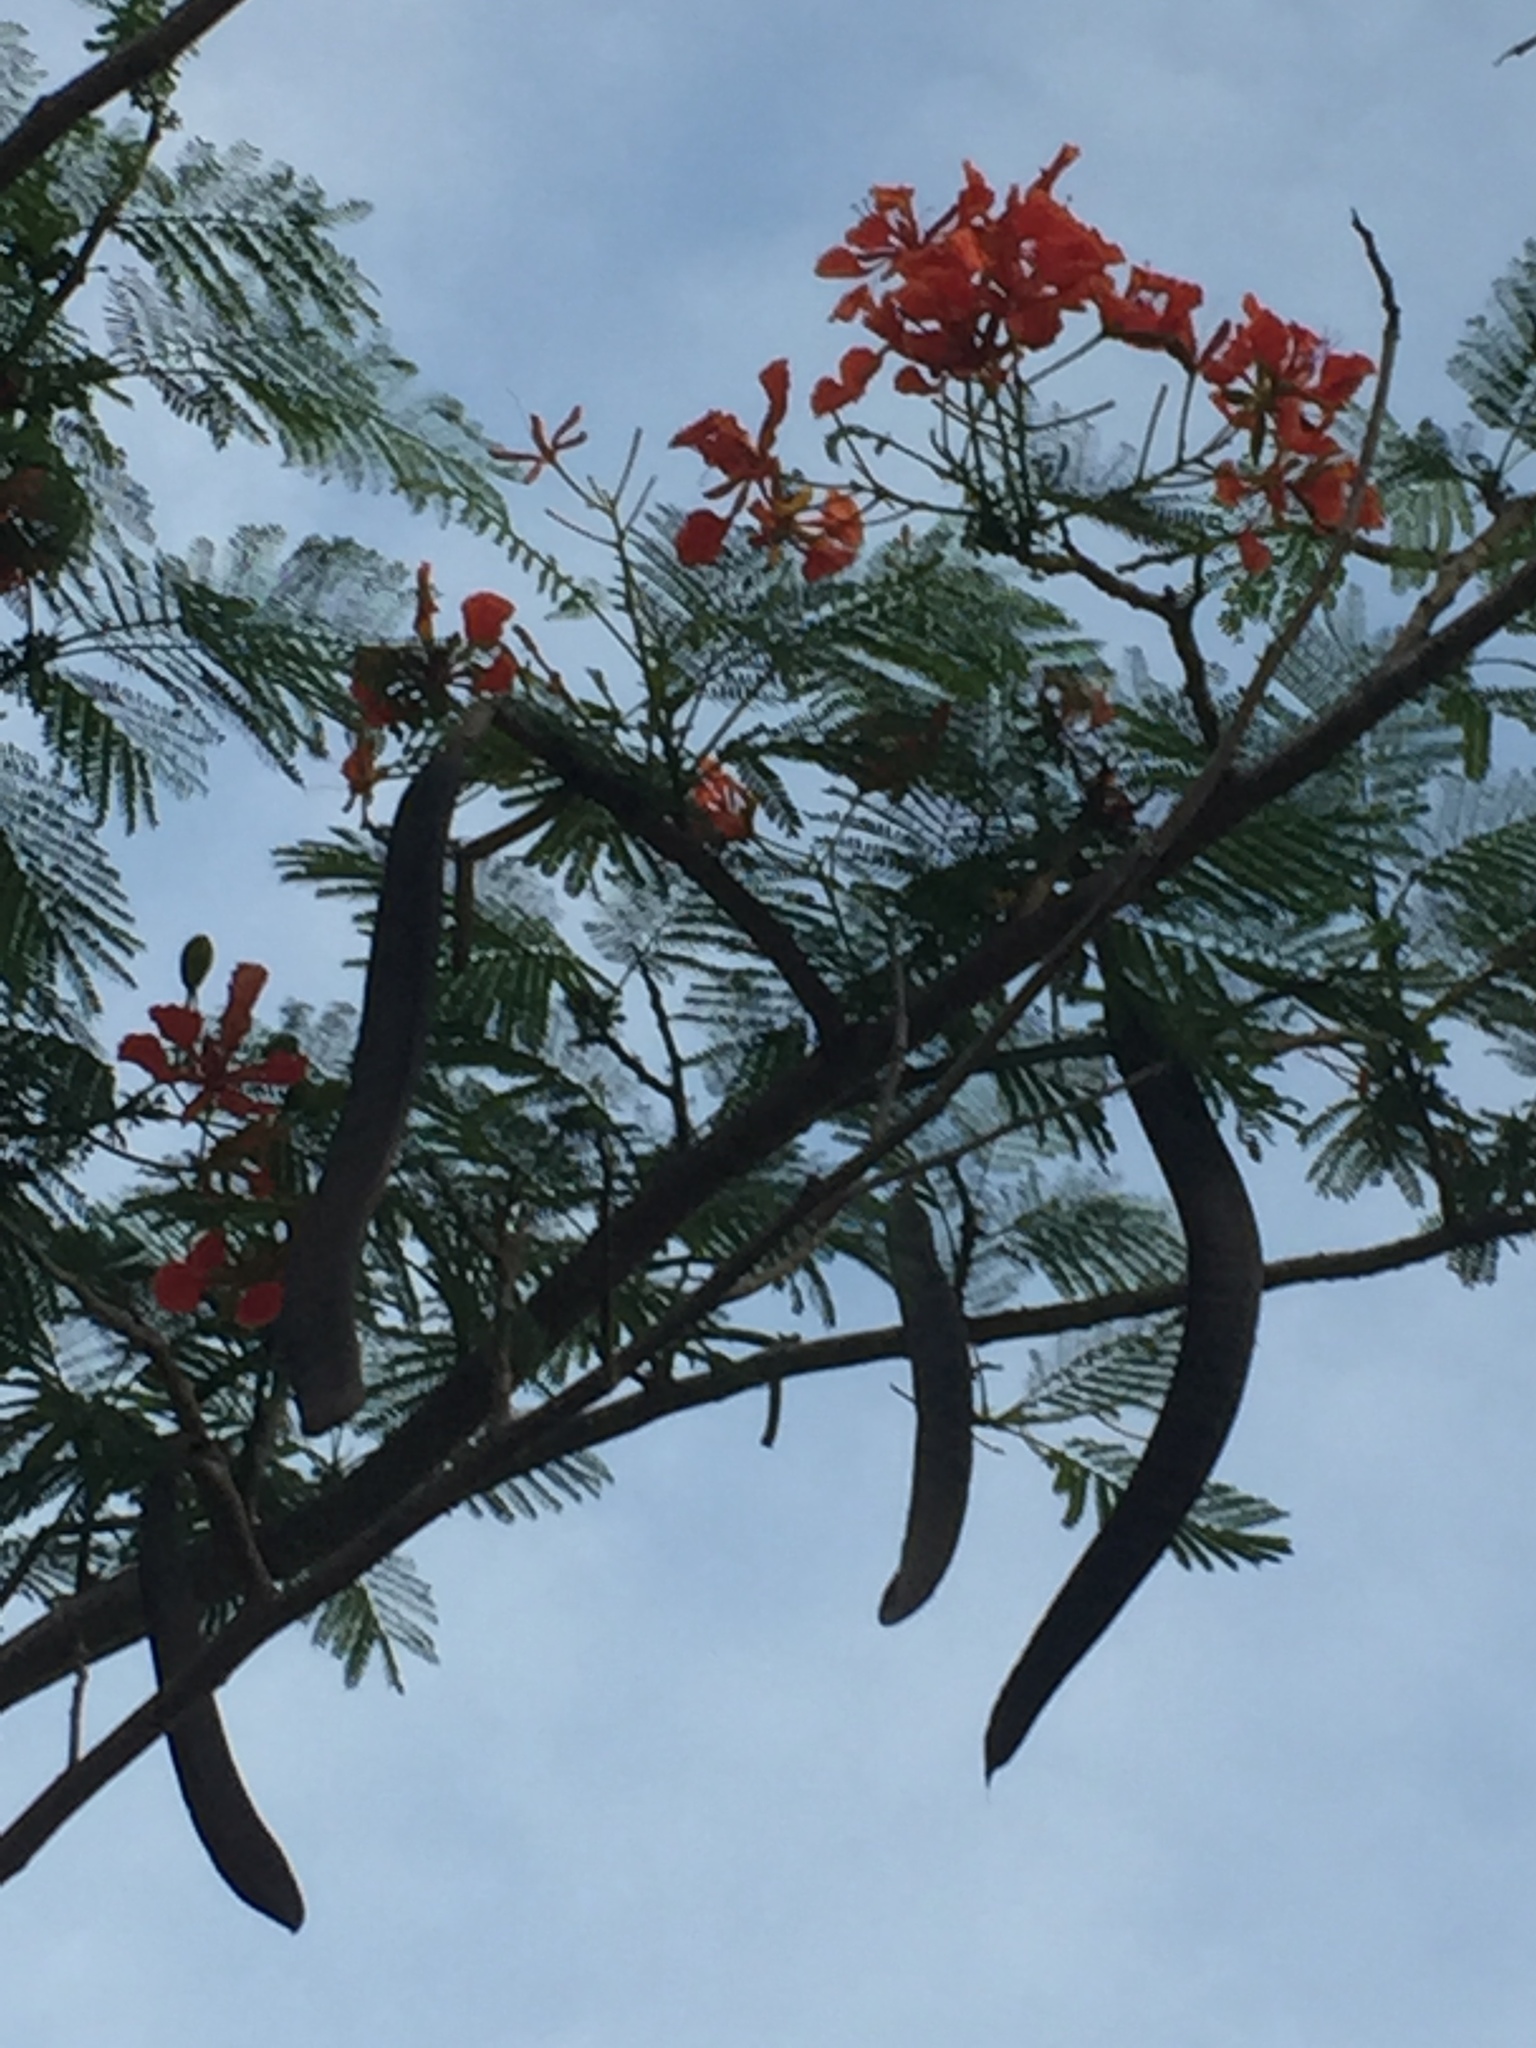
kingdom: Plantae
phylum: Tracheophyta
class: Magnoliopsida
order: Fabales
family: Fabaceae
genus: Delonix
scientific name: Delonix regia
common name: Royal poinciana
